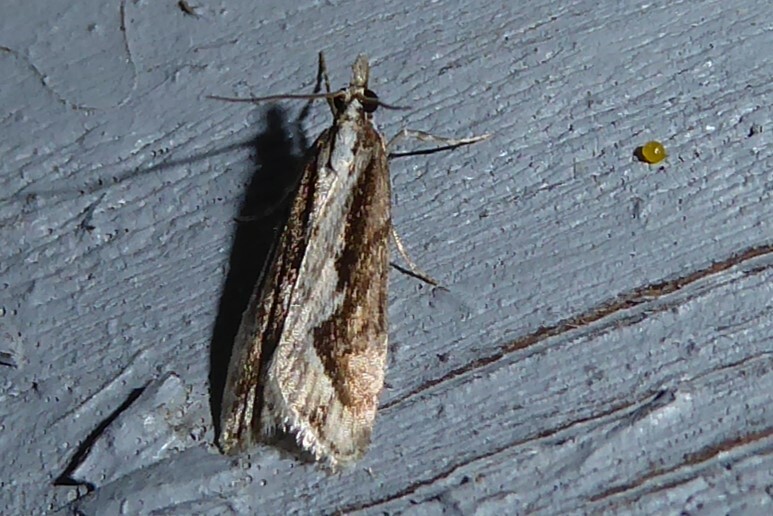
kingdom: Animalia
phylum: Arthropoda
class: Insecta
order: Lepidoptera
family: Crambidae
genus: Eudonia
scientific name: Eudonia steropaea
